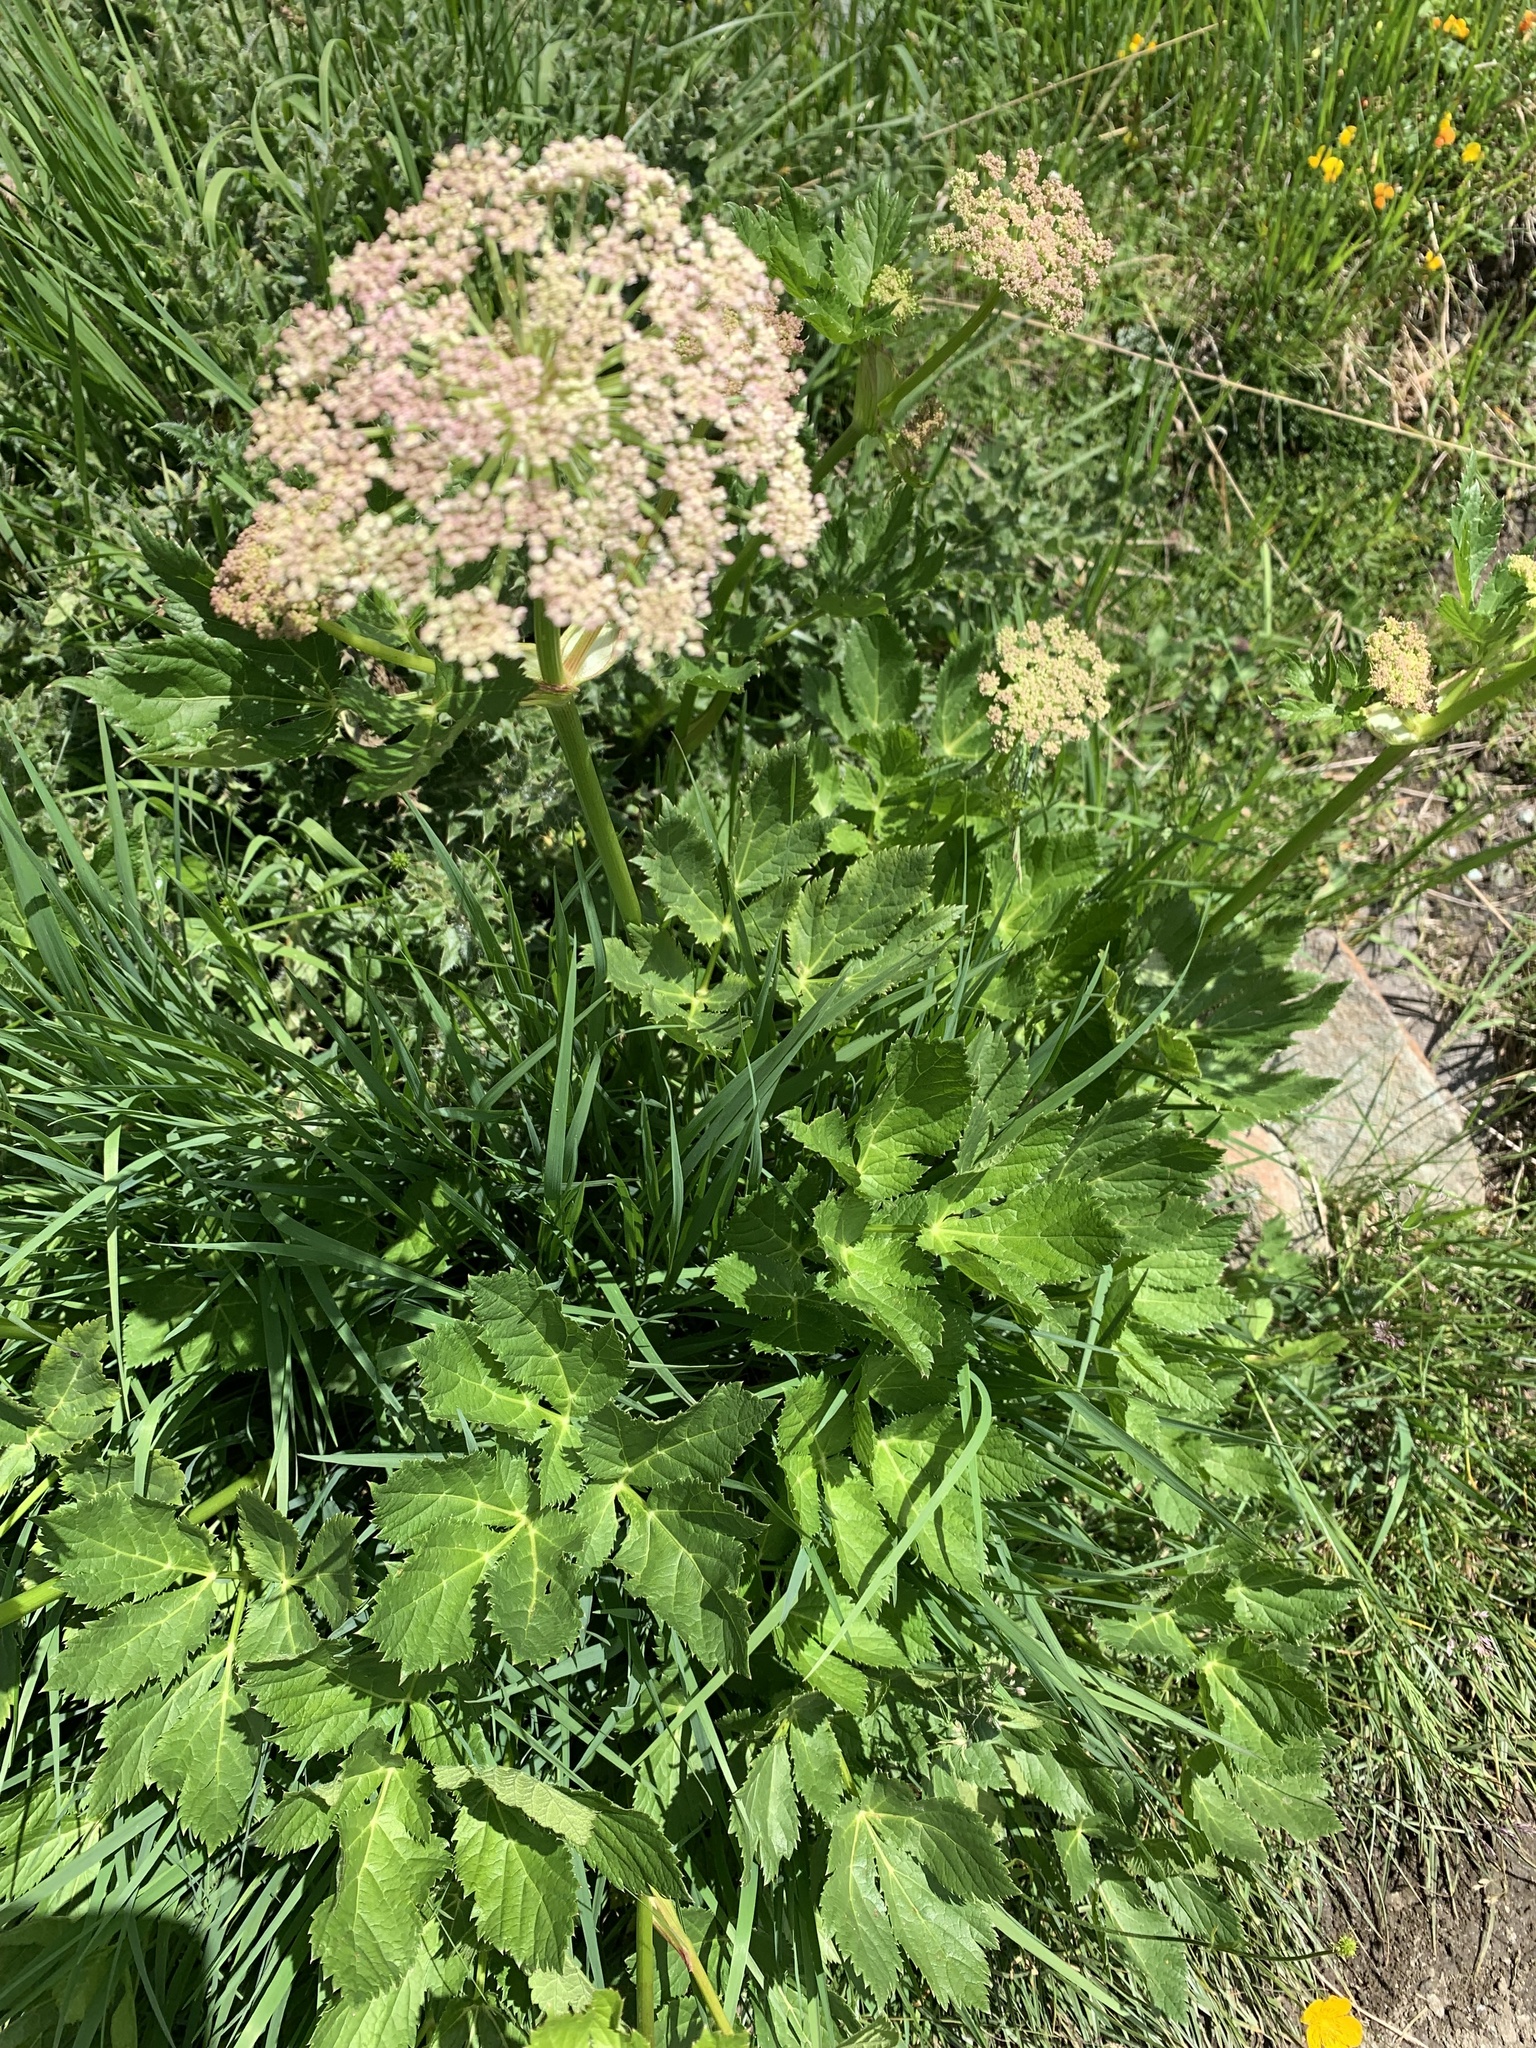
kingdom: Plantae
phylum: Tracheophyta
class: Magnoliopsida
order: Apiales
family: Apiaceae
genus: Imperatoria
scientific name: Imperatoria ostruthium
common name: Masterwort
